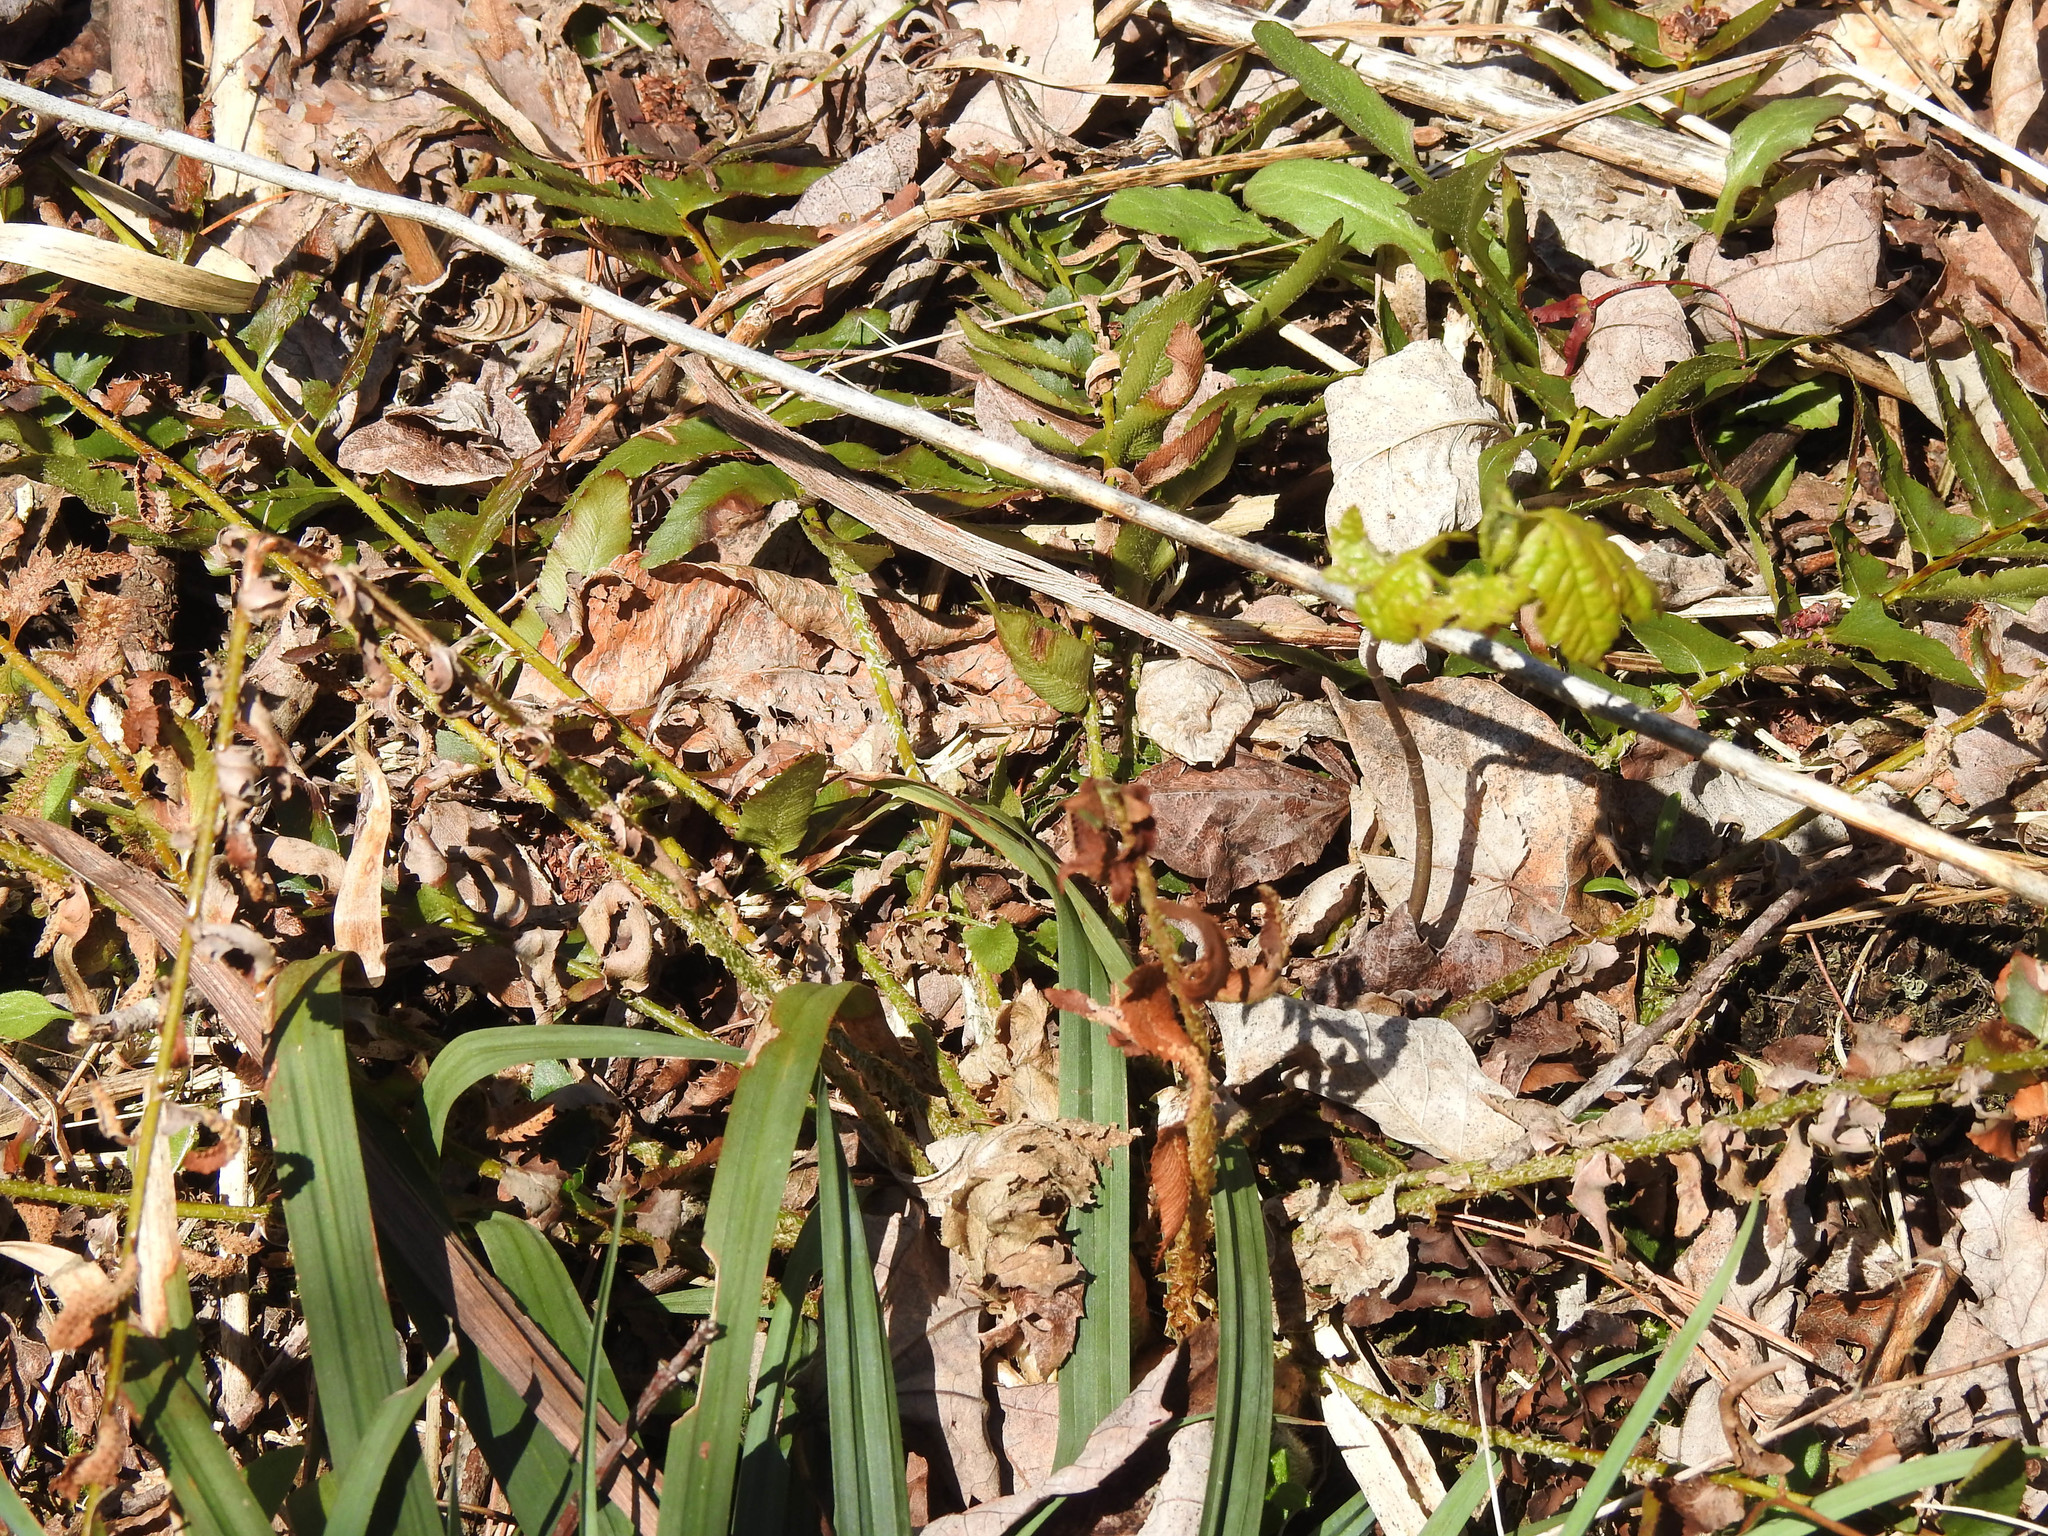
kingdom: Plantae
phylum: Tracheophyta
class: Polypodiopsida
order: Polypodiales
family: Dryopteridaceae
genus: Polystichum
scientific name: Polystichum acrostichoides
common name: Christmas fern
